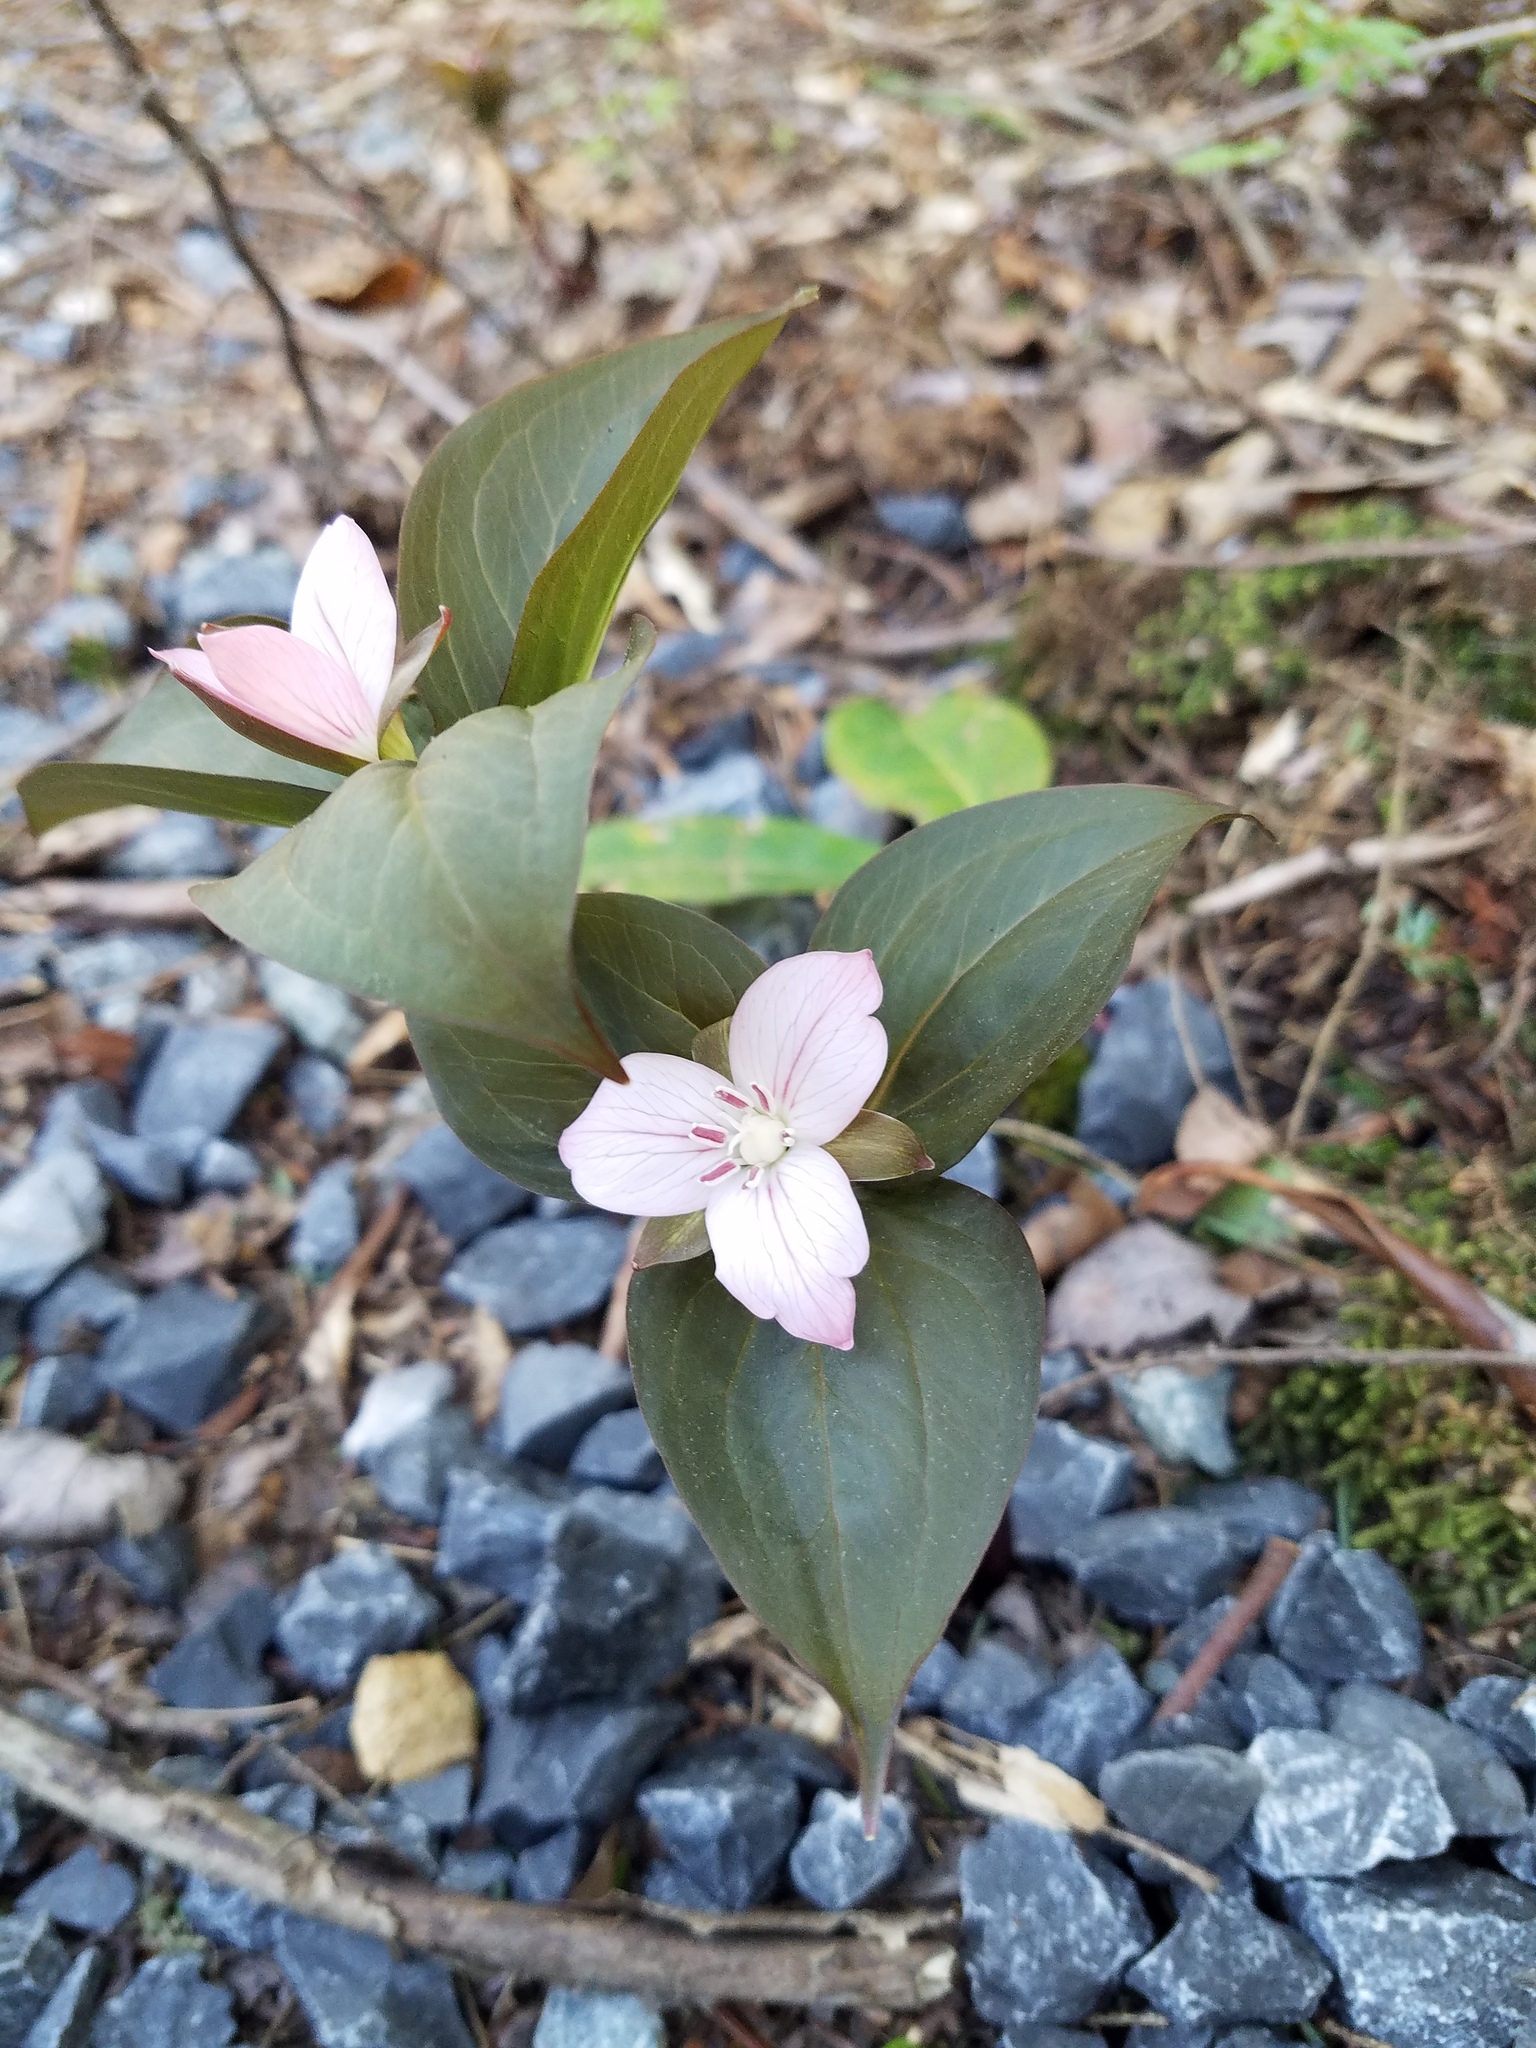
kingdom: Plantae
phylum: Tracheophyta
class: Liliopsida
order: Liliales
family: Melanthiaceae
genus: Trillium
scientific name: Trillium undulatum
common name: Paint trillium
